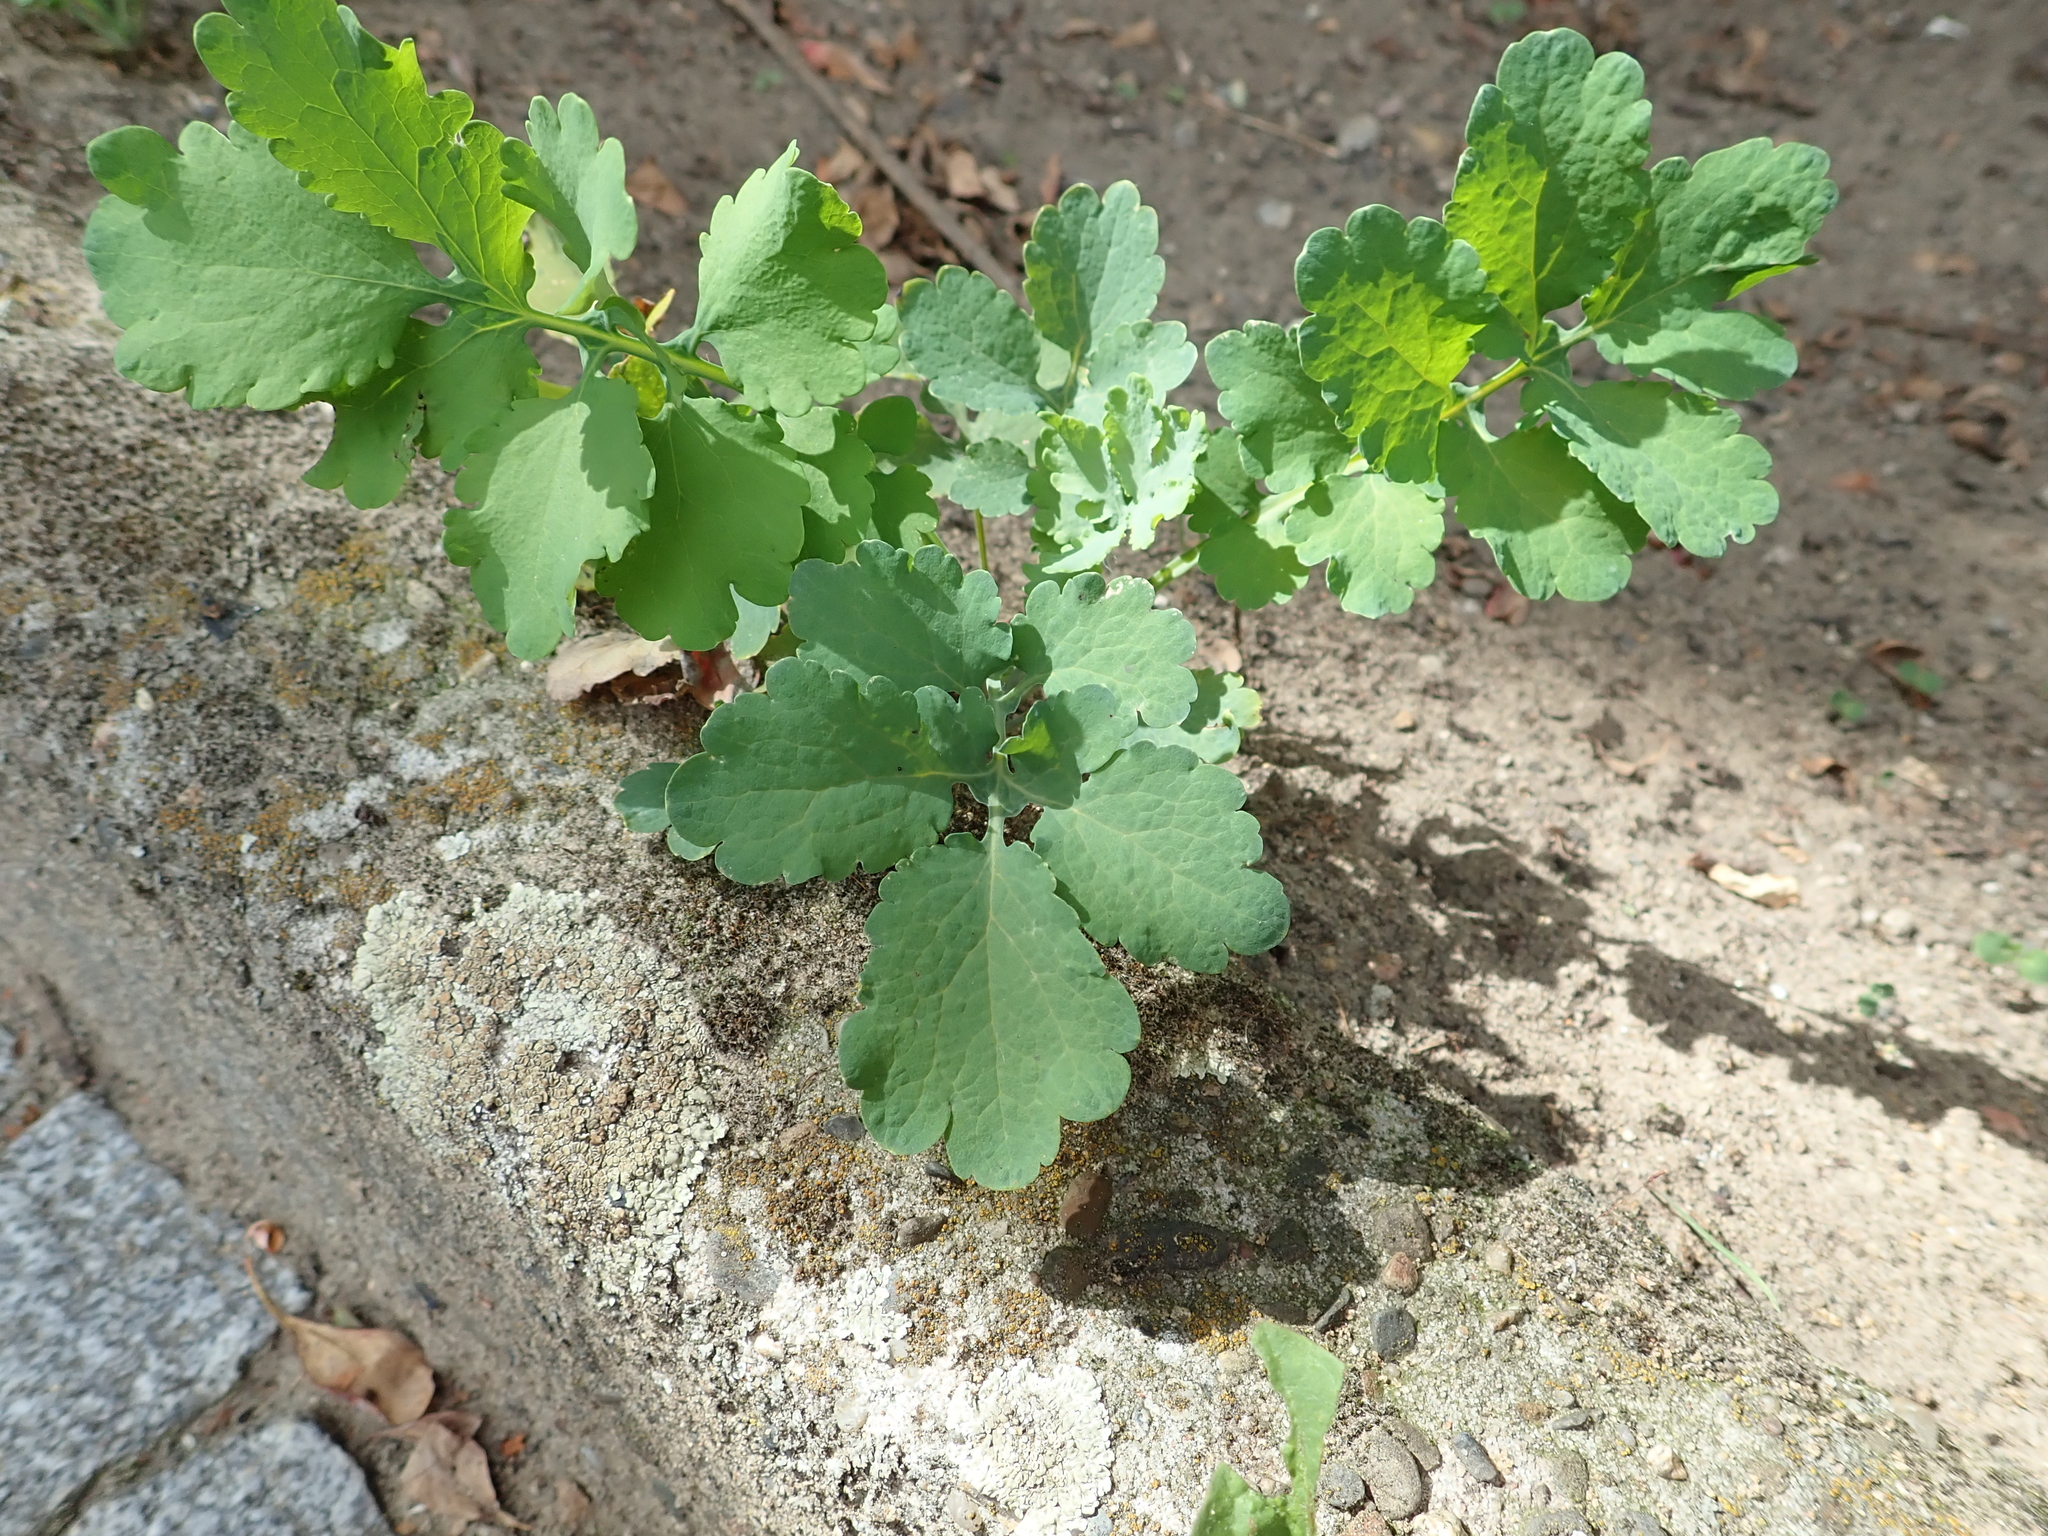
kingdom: Plantae
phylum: Tracheophyta
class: Magnoliopsida
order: Ranunculales
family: Papaveraceae
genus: Chelidonium
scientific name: Chelidonium majus
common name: Greater celandine
